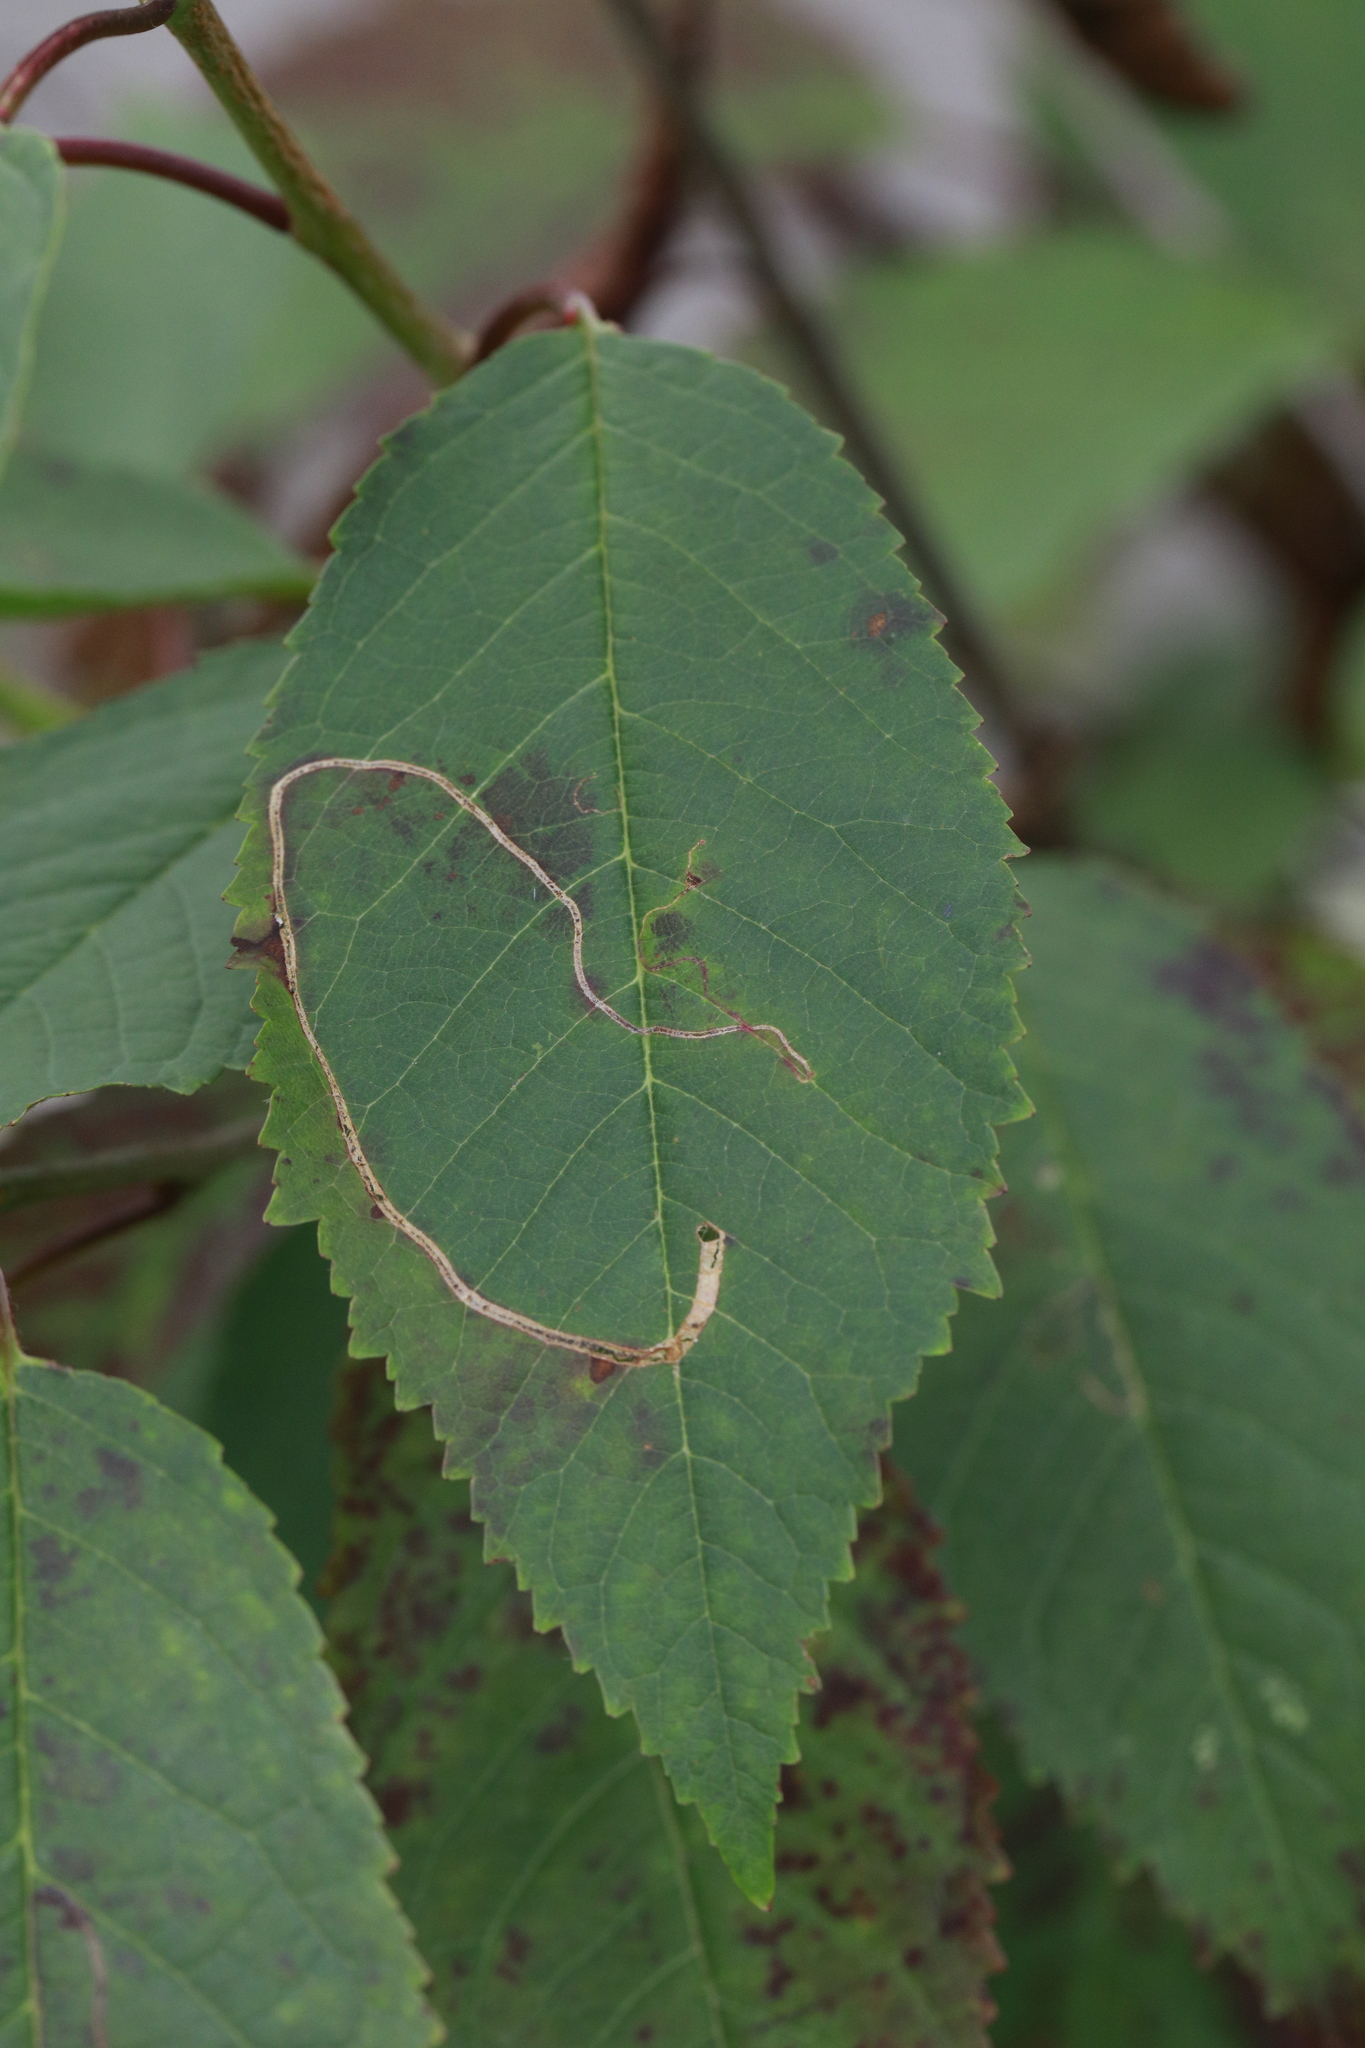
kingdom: Animalia
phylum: Arthropoda
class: Insecta
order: Lepidoptera
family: Lyonetiidae
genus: Lyonetia
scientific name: Lyonetia clerkella
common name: Apple leaf miner
